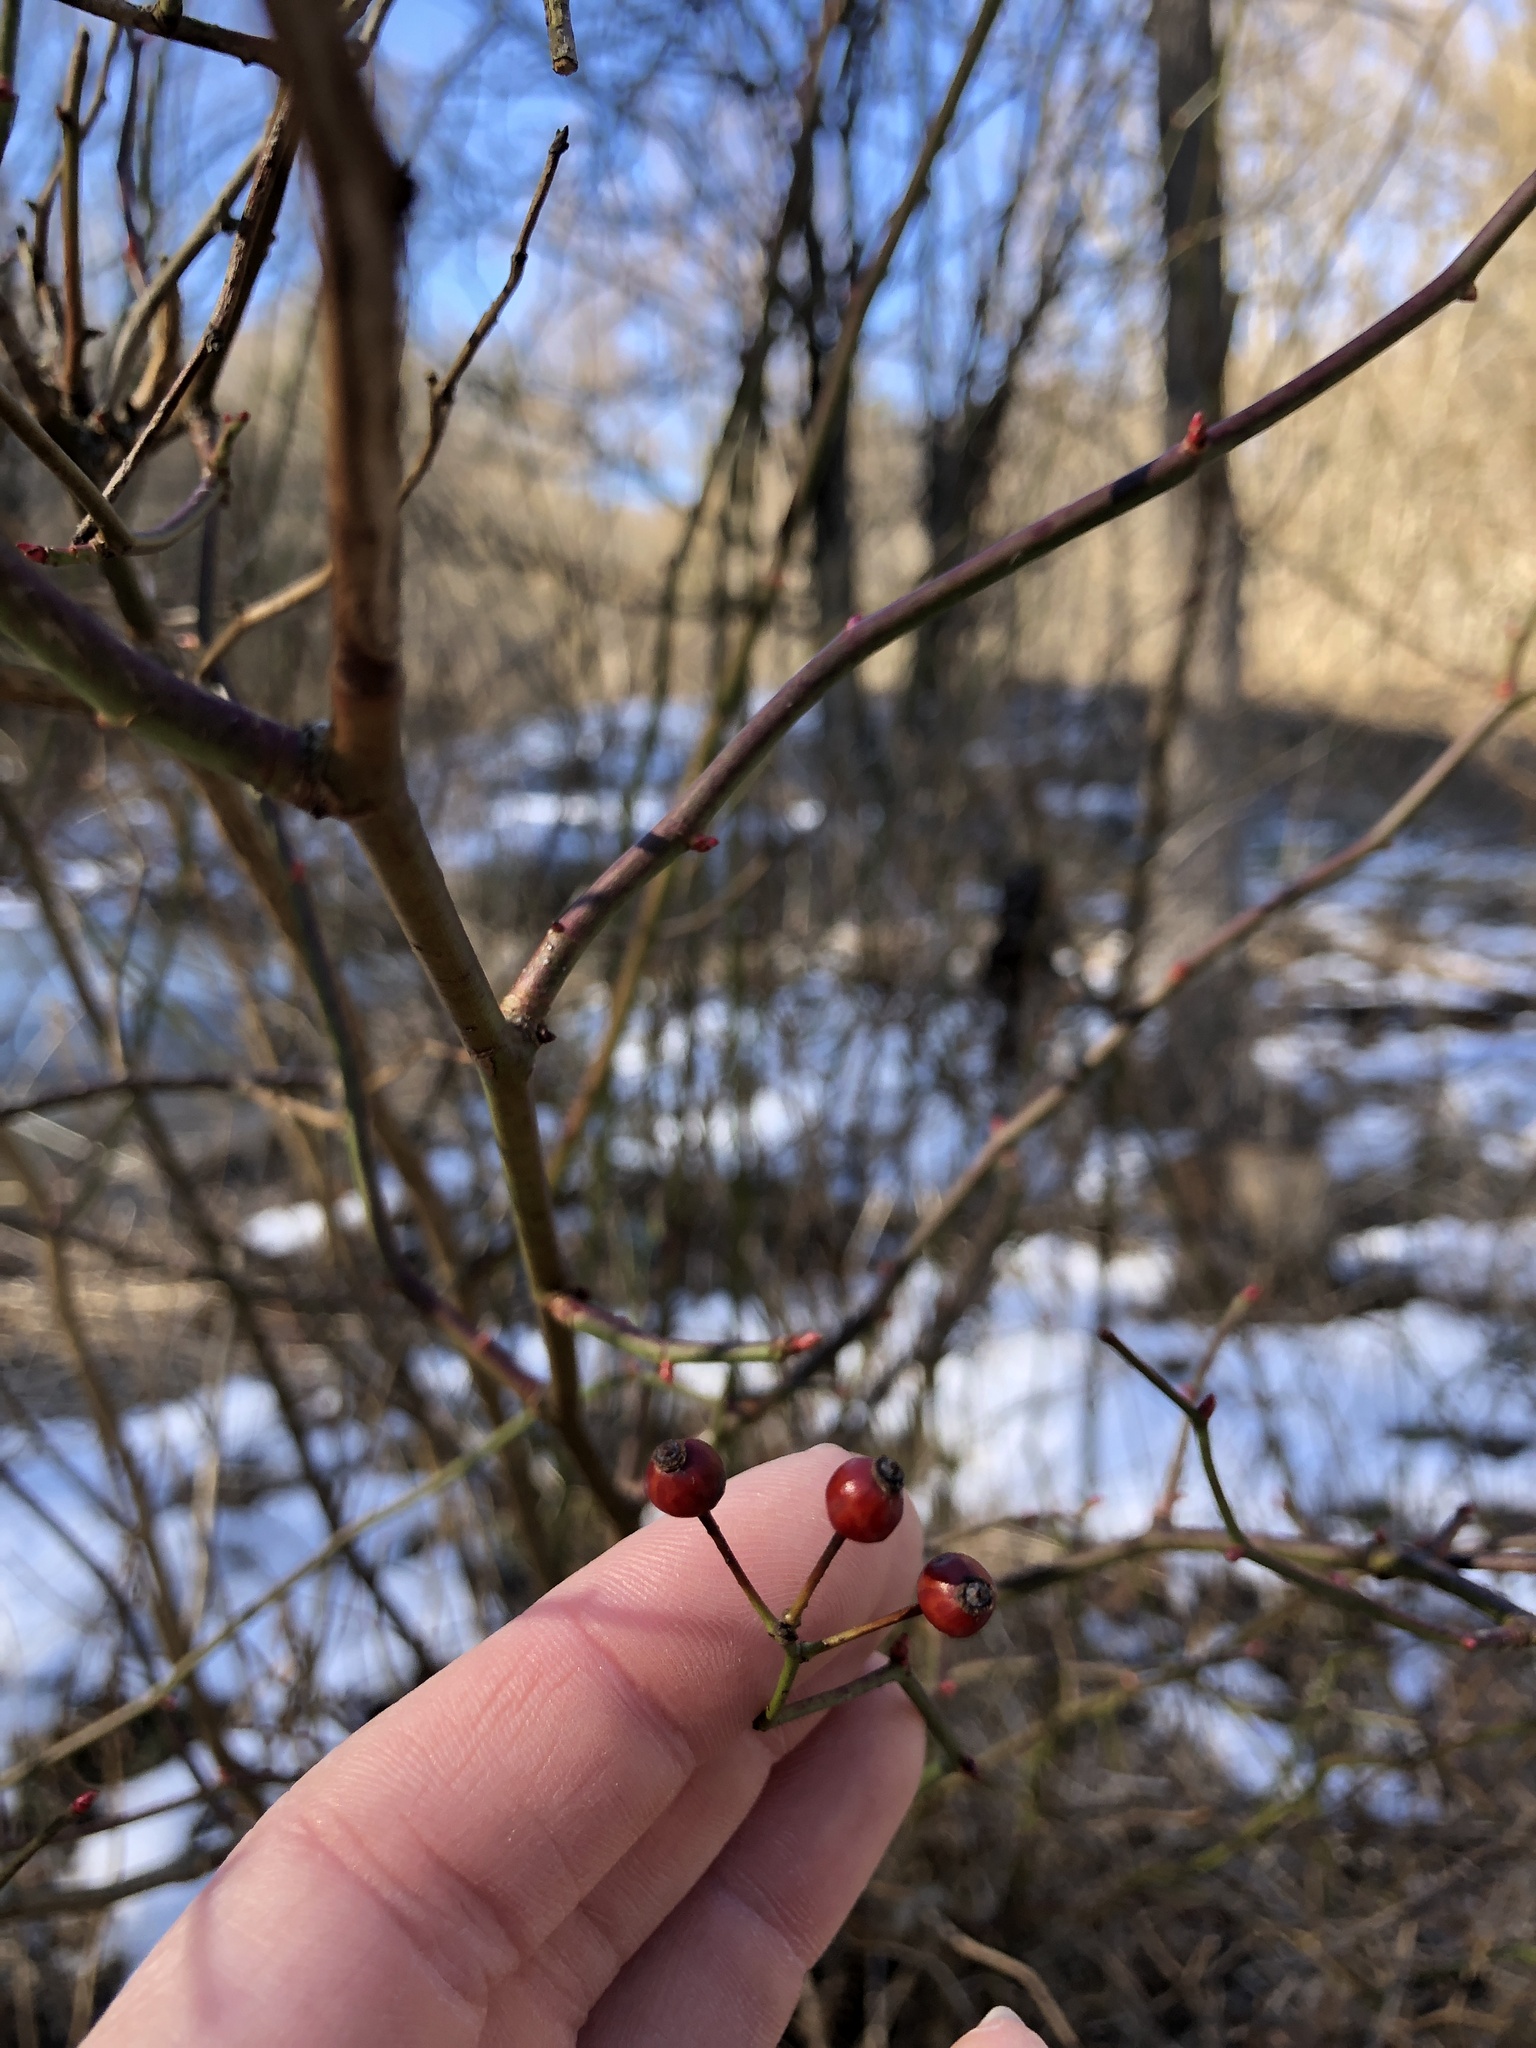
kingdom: Plantae
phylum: Tracheophyta
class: Magnoliopsida
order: Rosales
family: Rosaceae
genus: Rosa
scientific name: Rosa multiflora
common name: Multiflora rose
